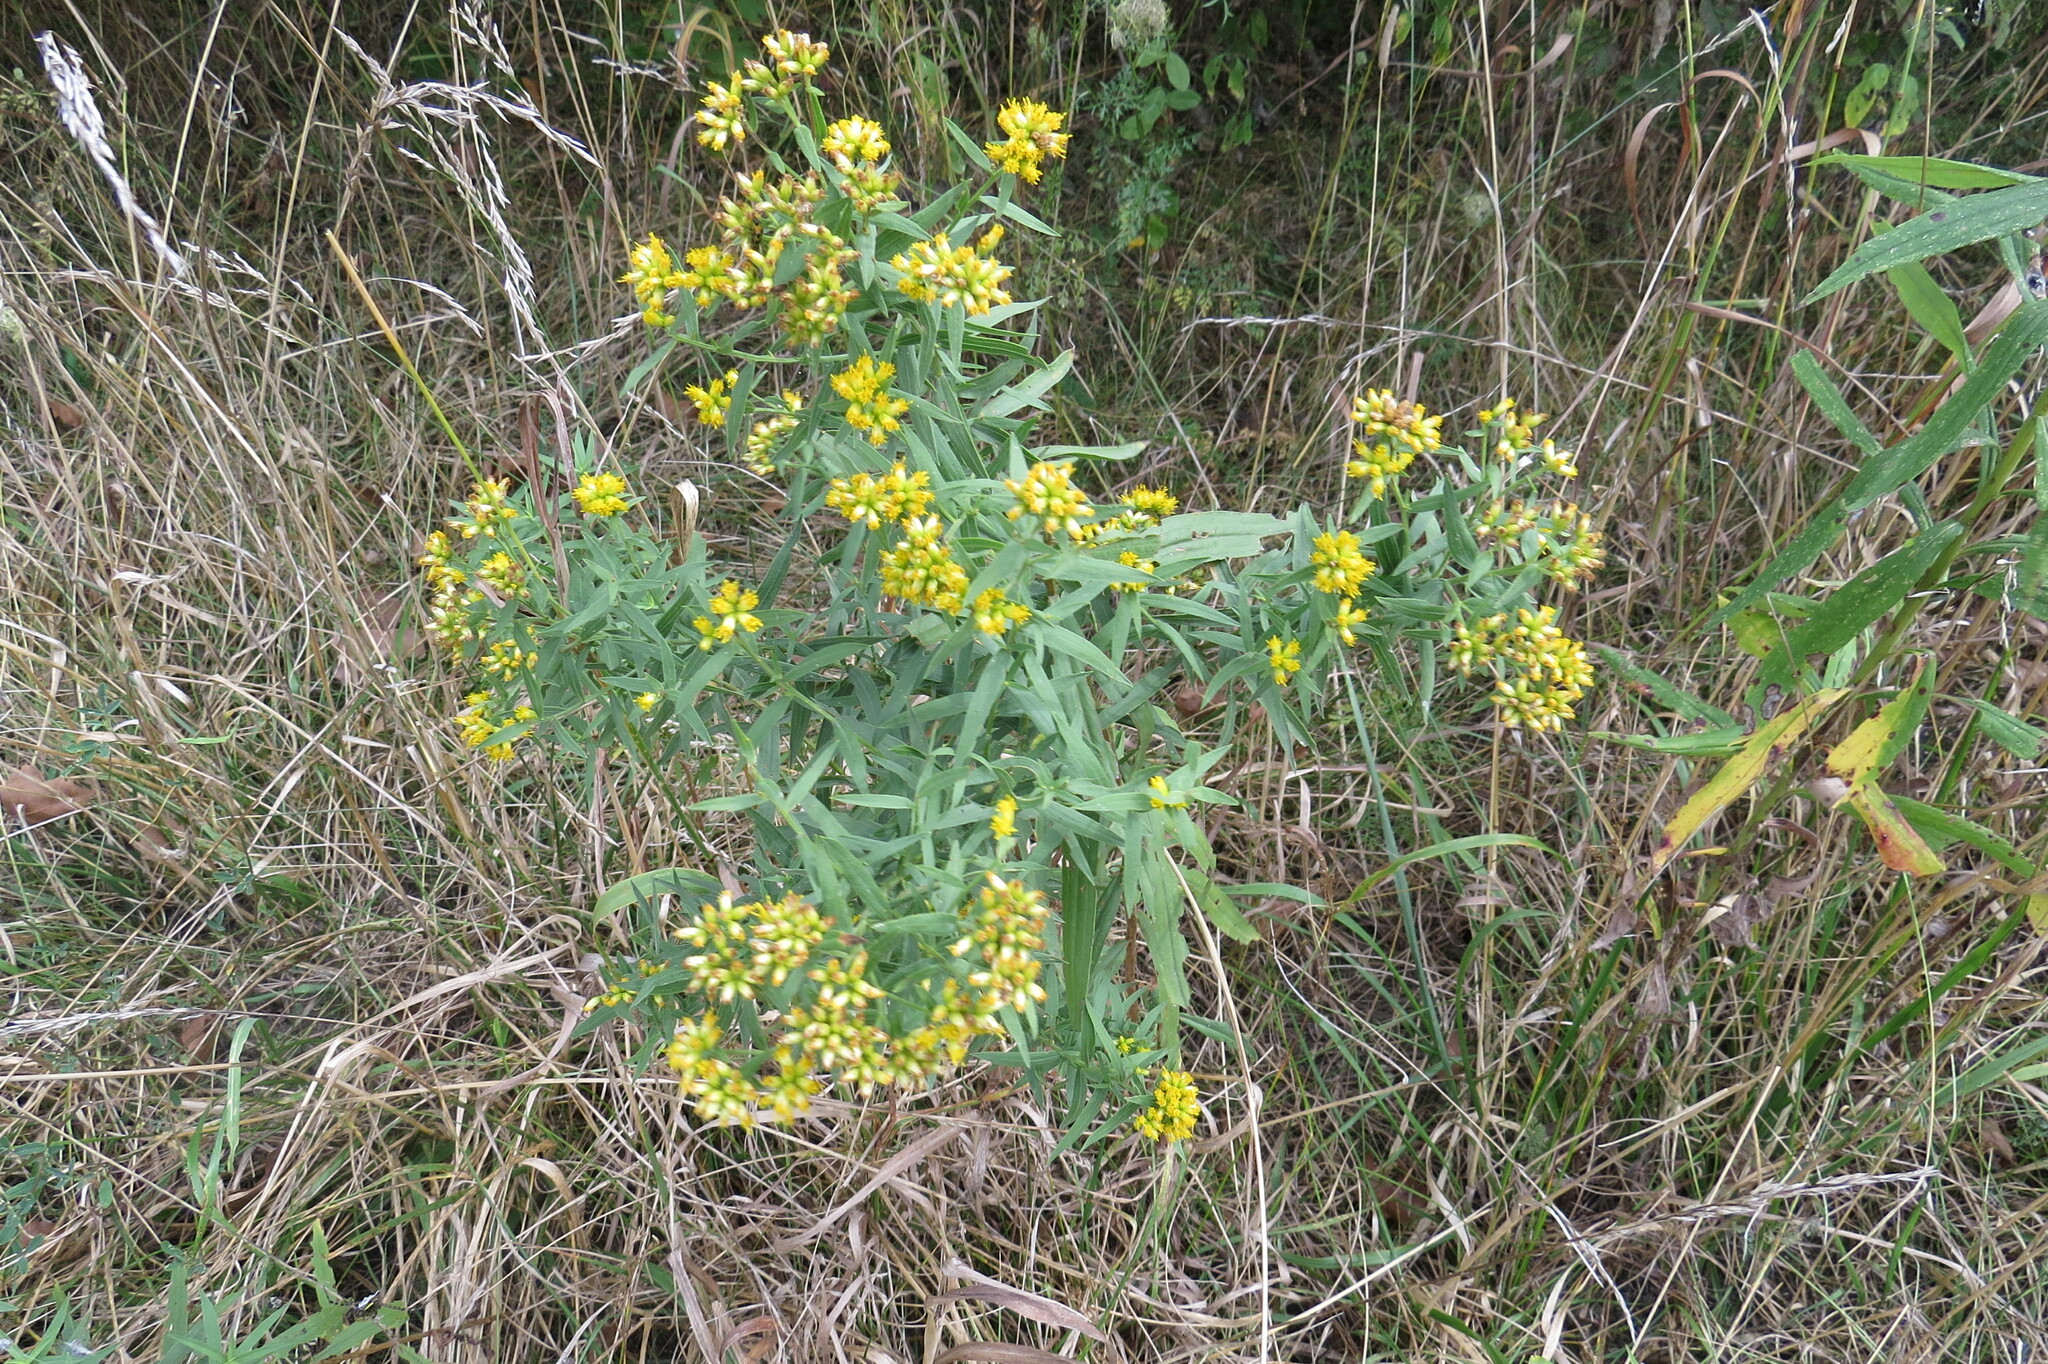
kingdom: Plantae
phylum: Tracheophyta
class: Magnoliopsida
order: Asterales
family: Asteraceae
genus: Euthamia
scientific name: Euthamia graminifolia
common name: Common goldentop
